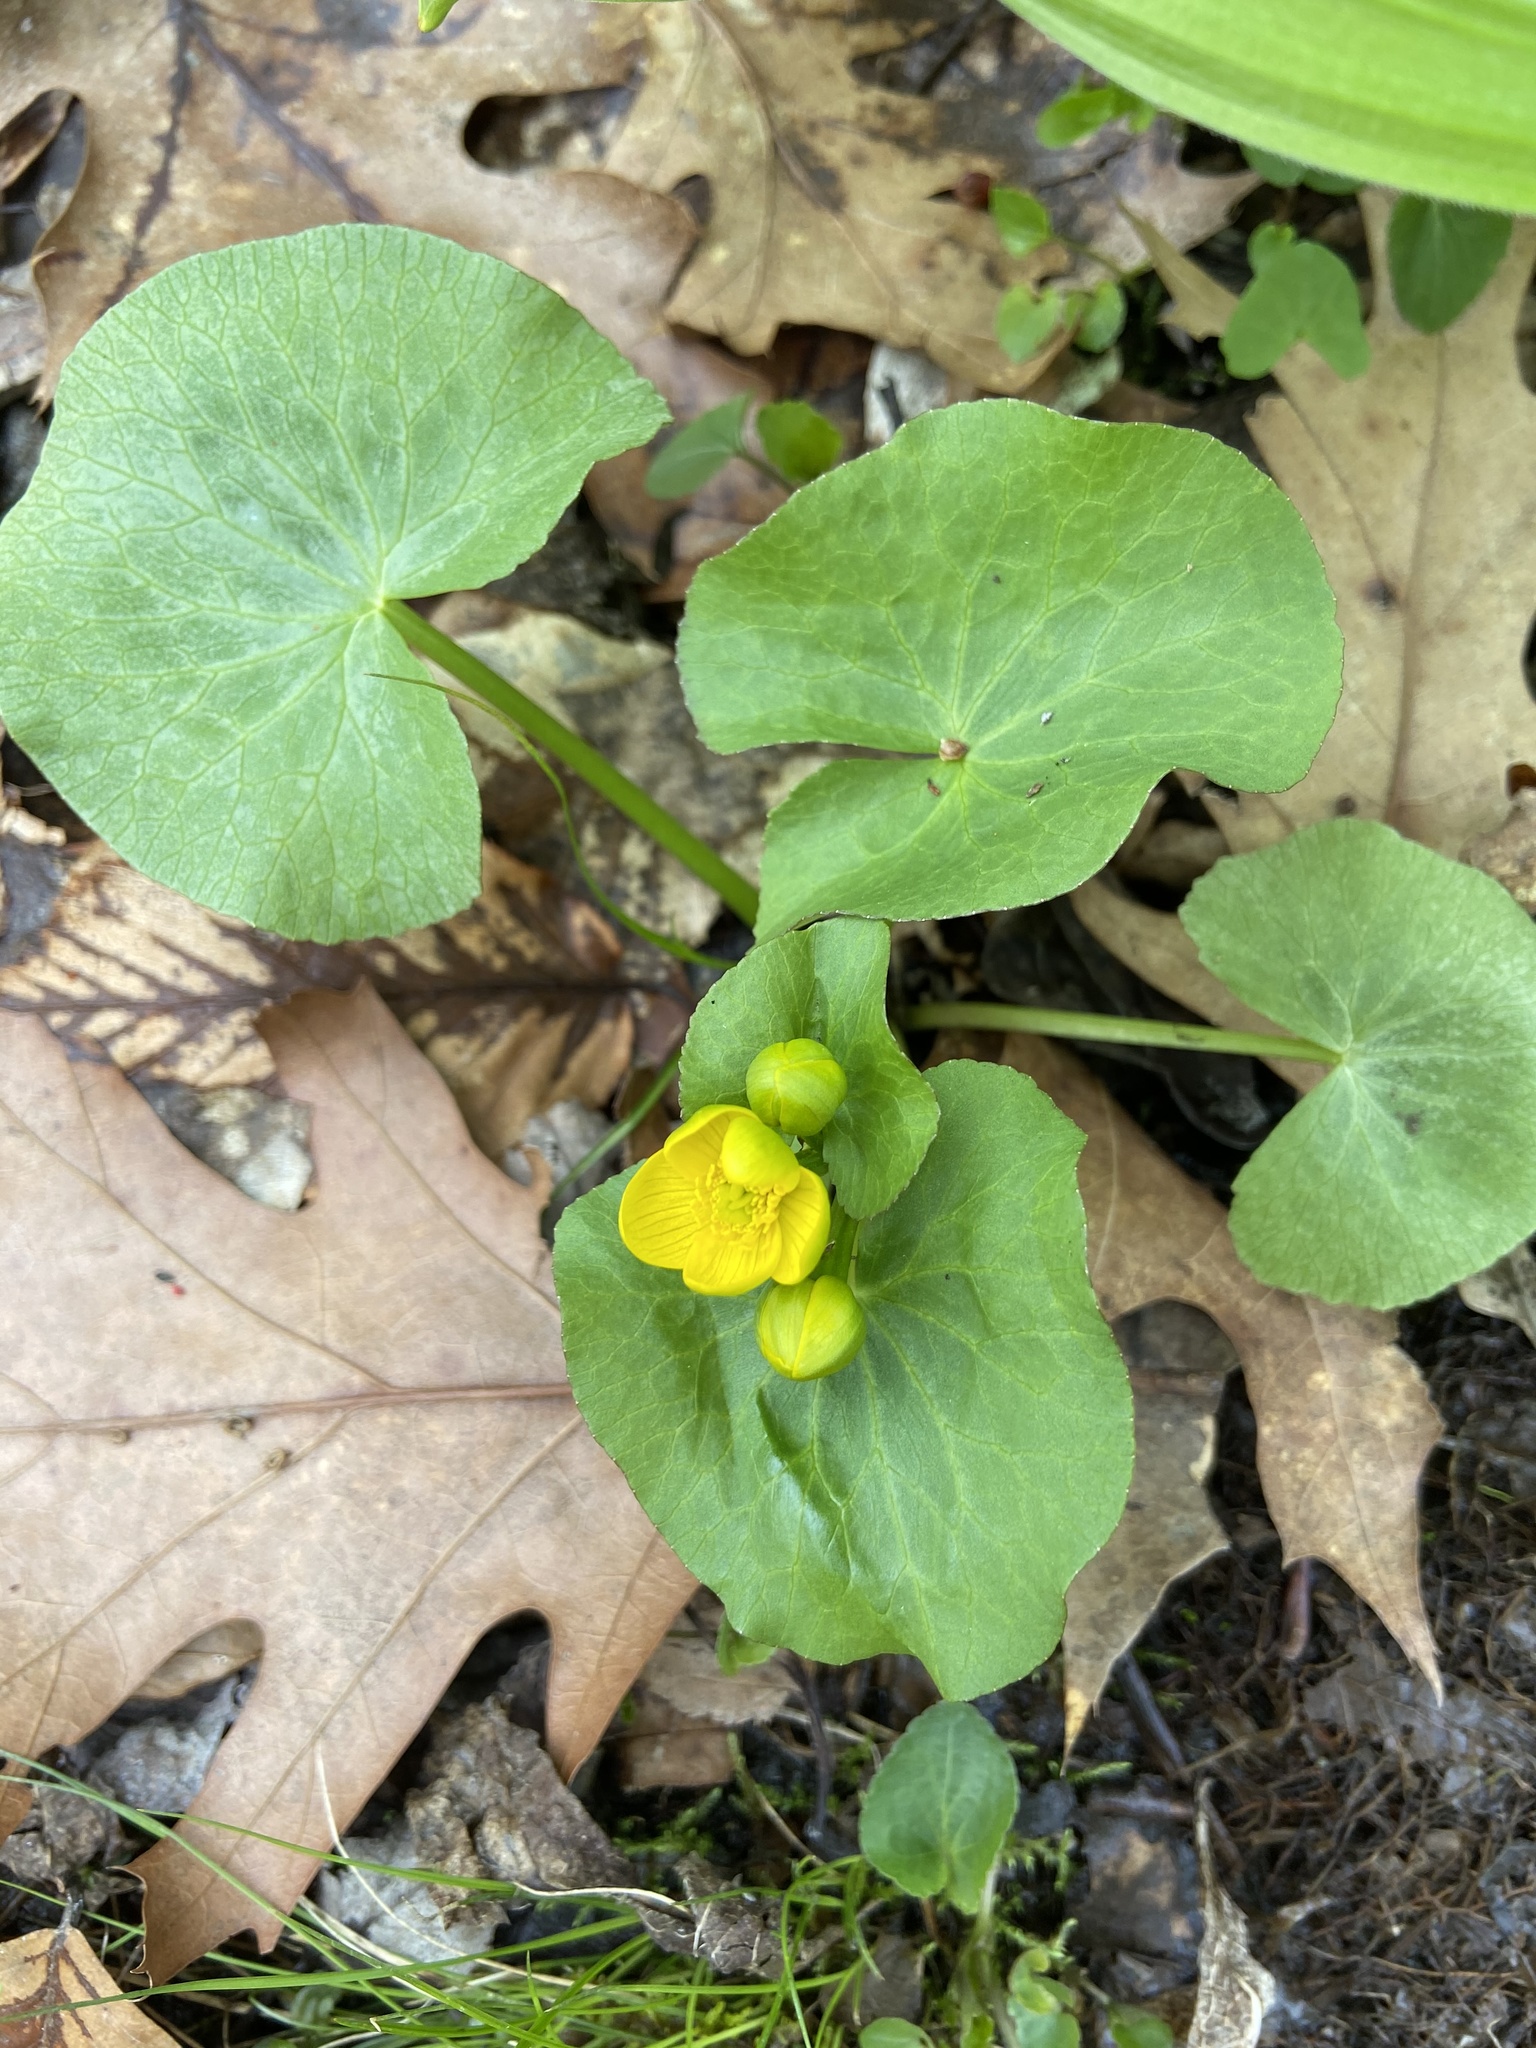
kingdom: Plantae
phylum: Tracheophyta
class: Magnoliopsida
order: Ranunculales
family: Ranunculaceae
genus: Caltha
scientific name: Caltha palustris
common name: Marsh marigold
